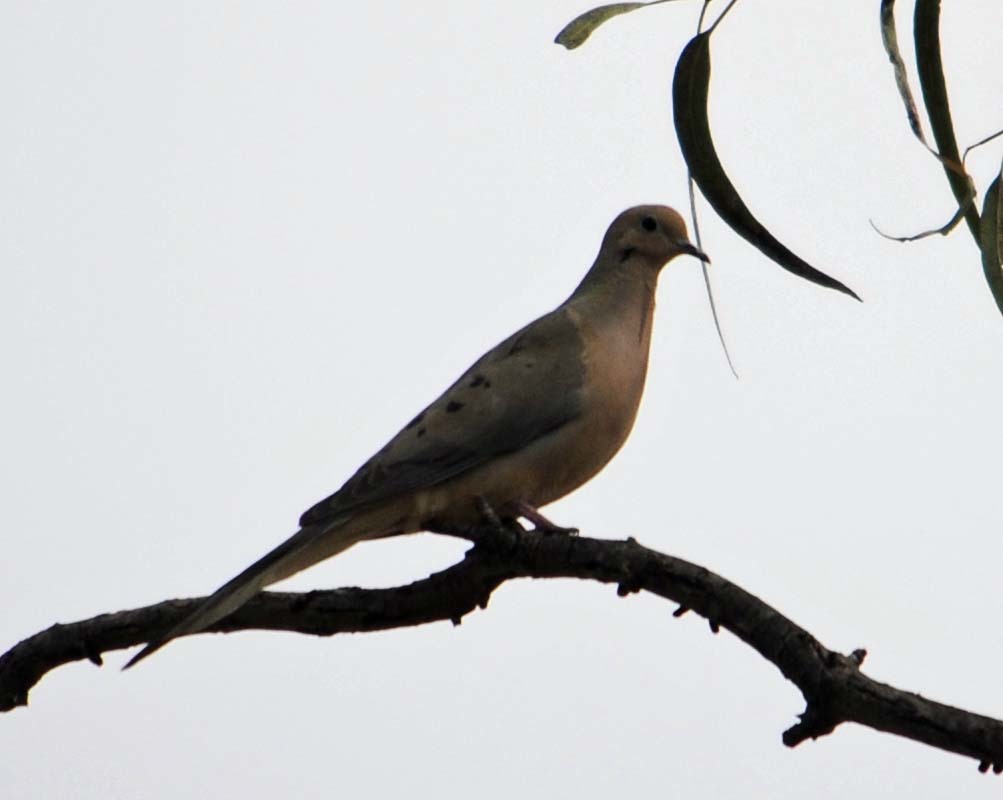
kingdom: Animalia
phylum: Chordata
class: Aves
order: Columbiformes
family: Columbidae
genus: Zenaida
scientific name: Zenaida macroura
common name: Mourning dove
